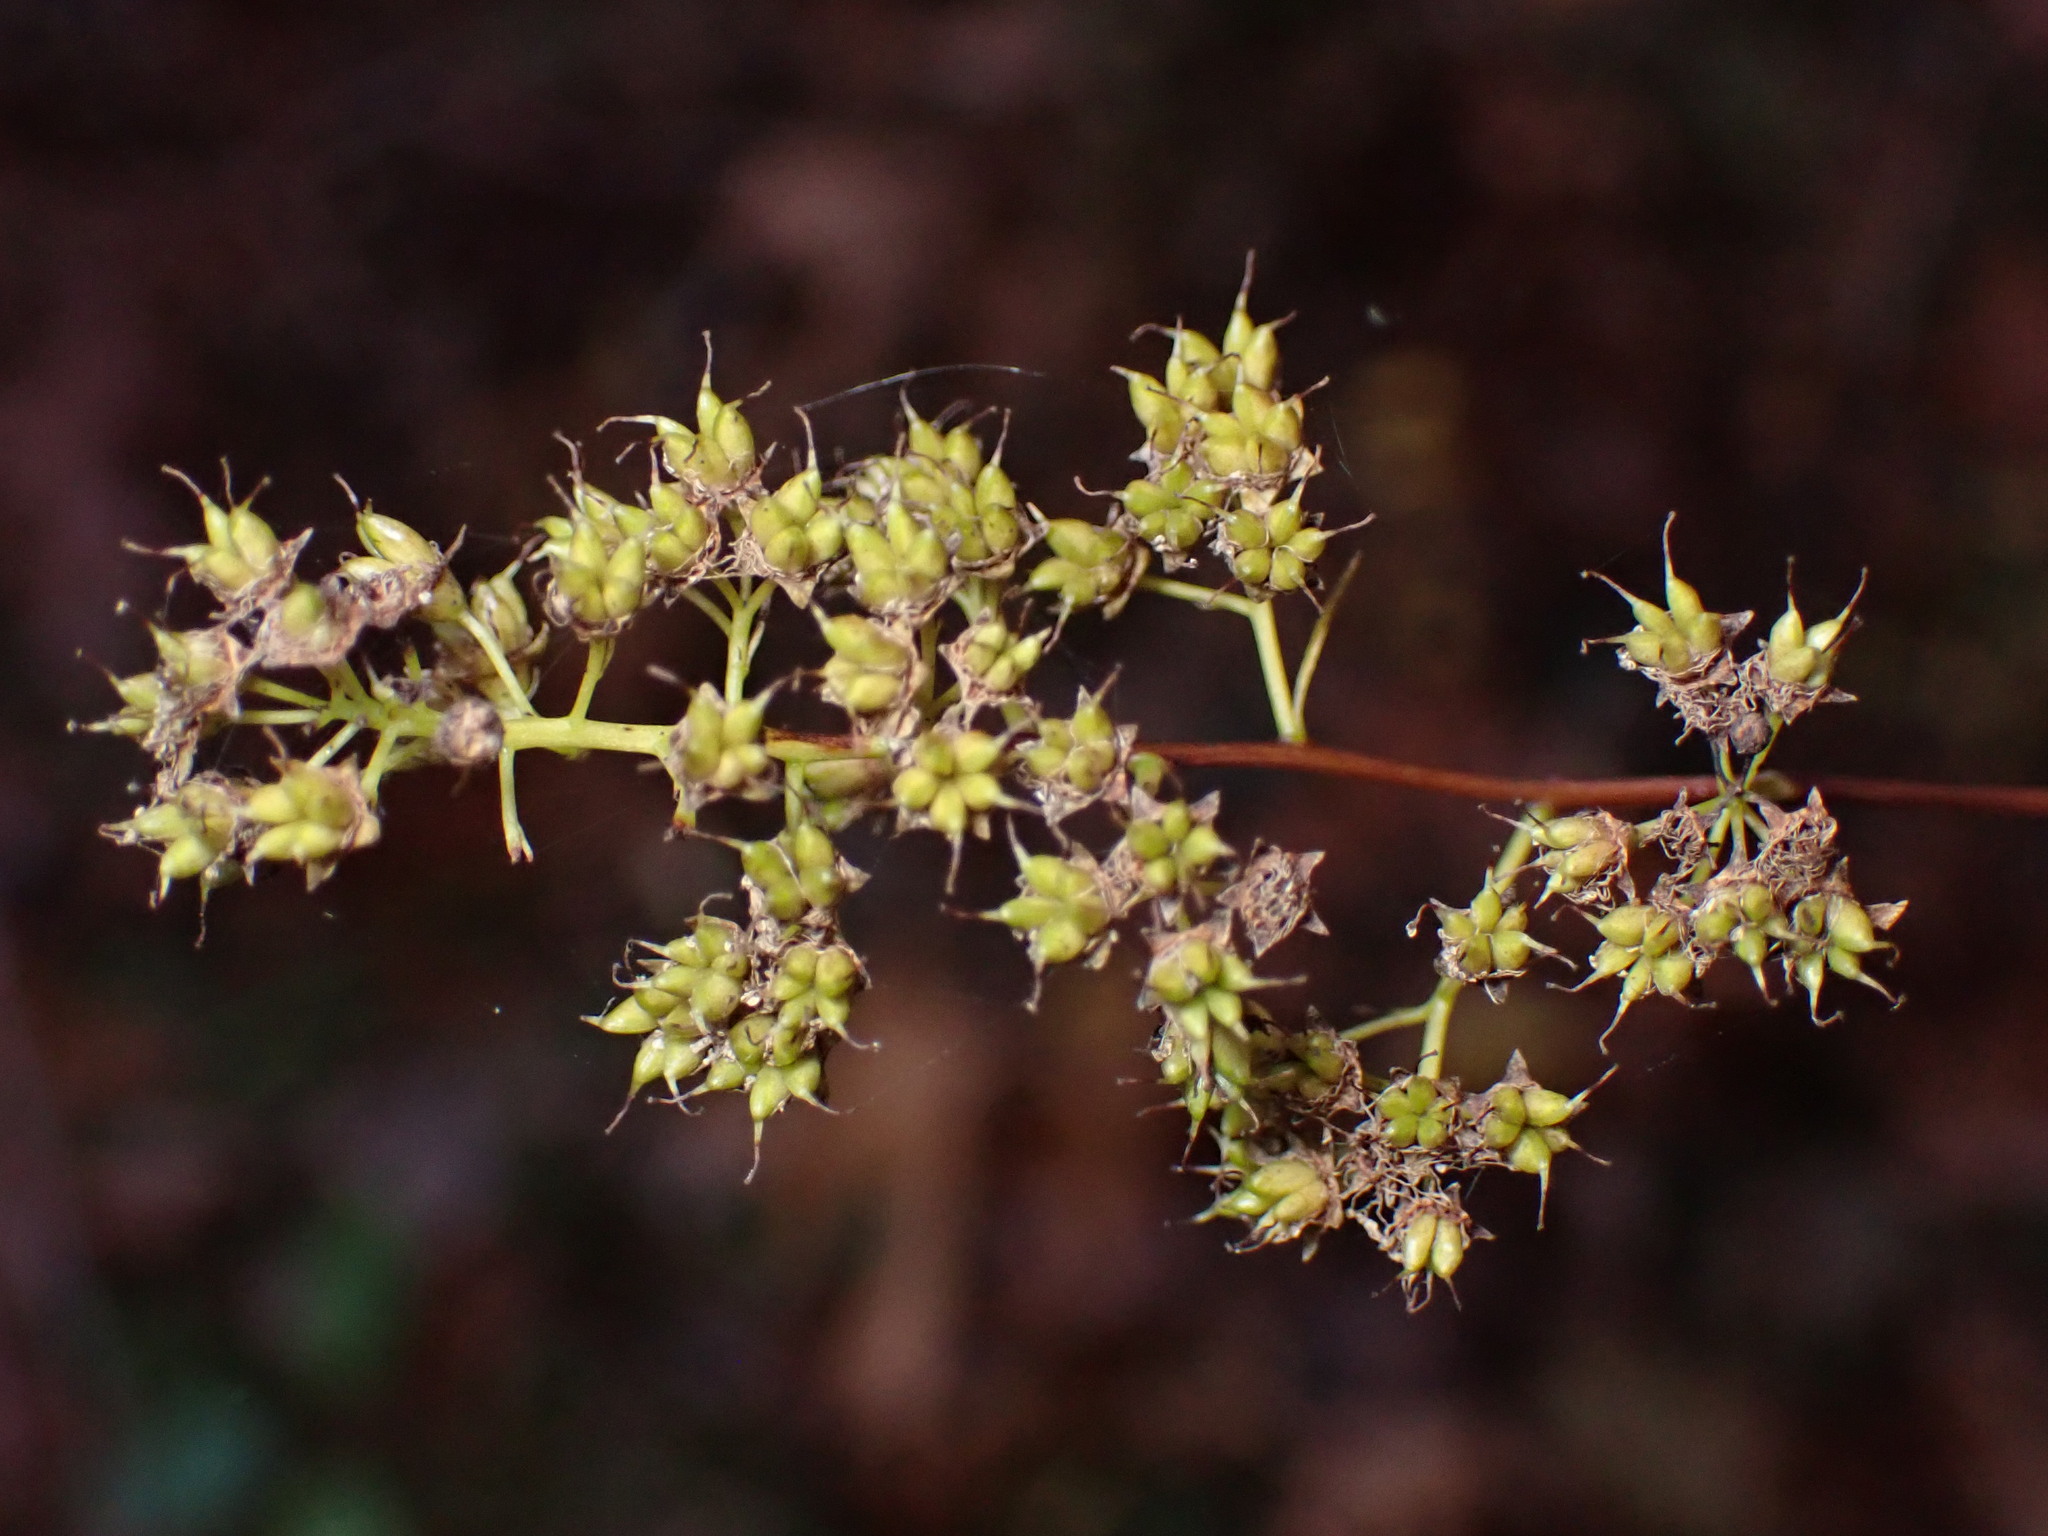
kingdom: Plantae
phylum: Tracheophyta
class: Magnoliopsida
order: Rosales
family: Rosaceae
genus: Spiraea
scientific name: Spiraea alba
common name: Pale bridewort
